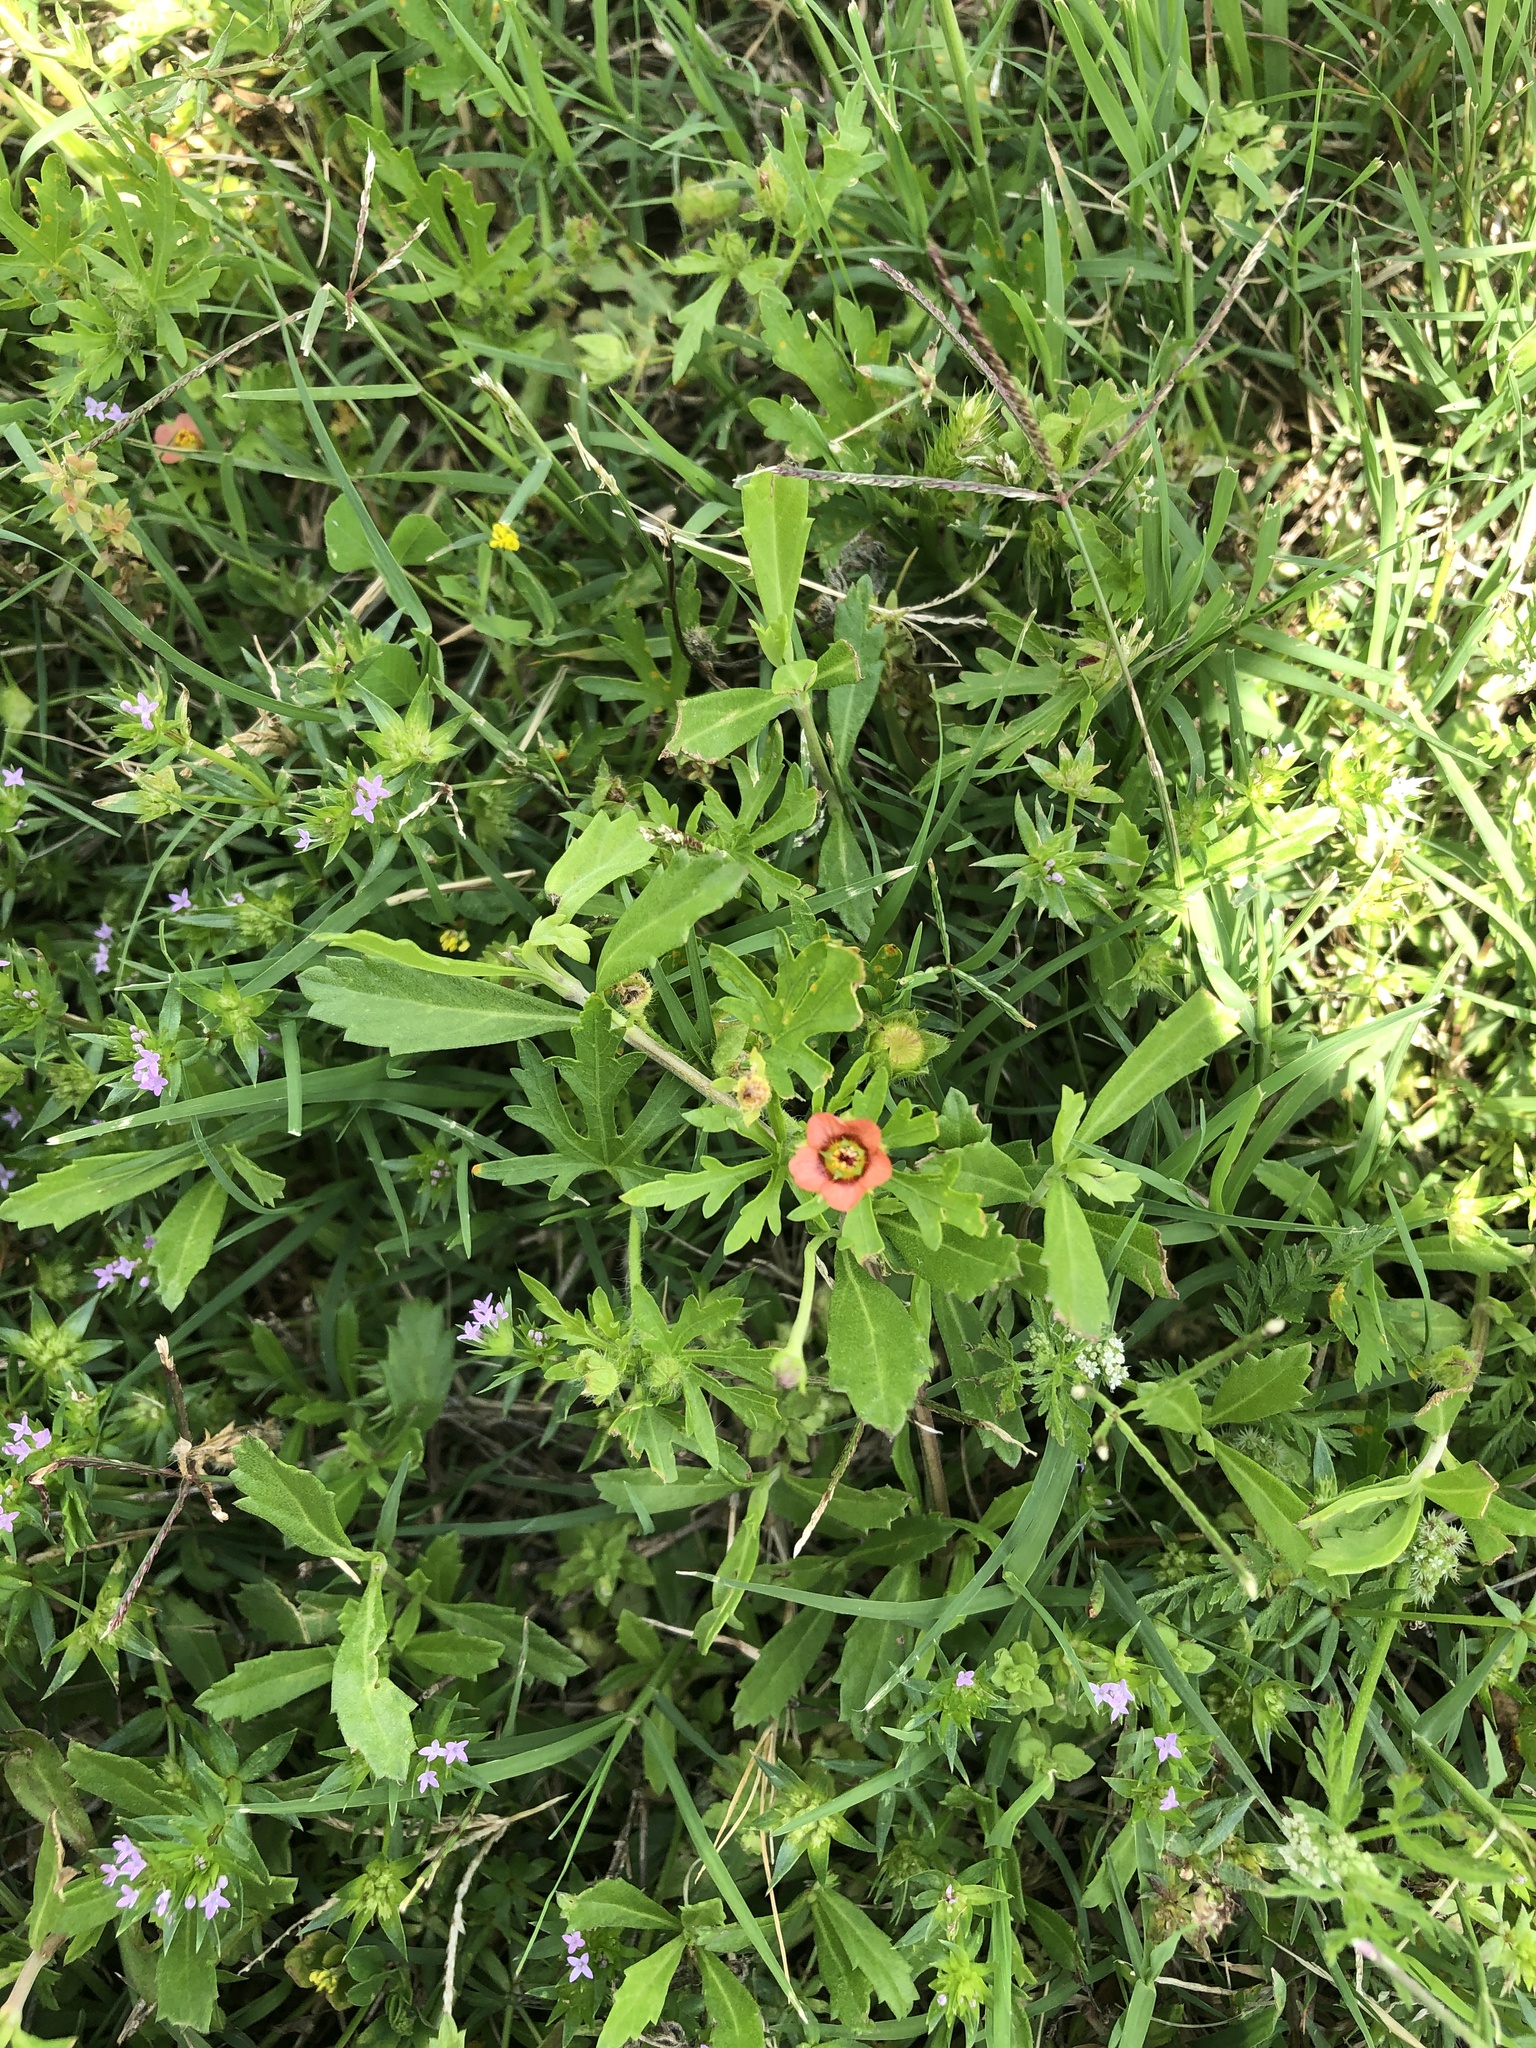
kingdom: Plantae
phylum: Tracheophyta
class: Magnoliopsida
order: Malvales
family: Malvaceae
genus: Modiola
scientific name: Modiola caroliniana
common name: Carolina bristlemallow
